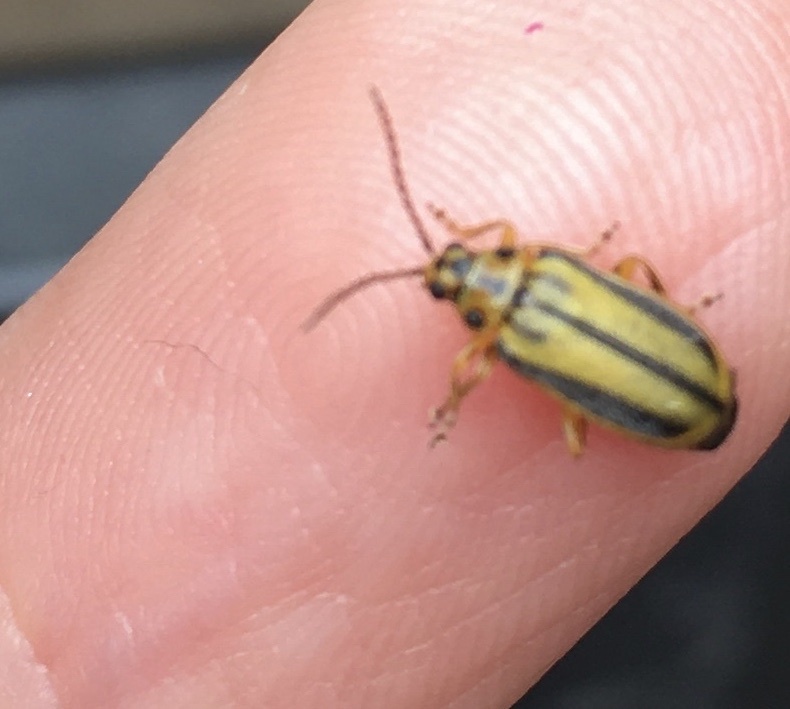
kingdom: Animalia
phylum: Arthropoda
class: Insecta
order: Coleoptera
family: Chrysomelidae
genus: Xanthogaleruca
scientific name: Xanthogaleruca luteola
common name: Elm leaf beetle
